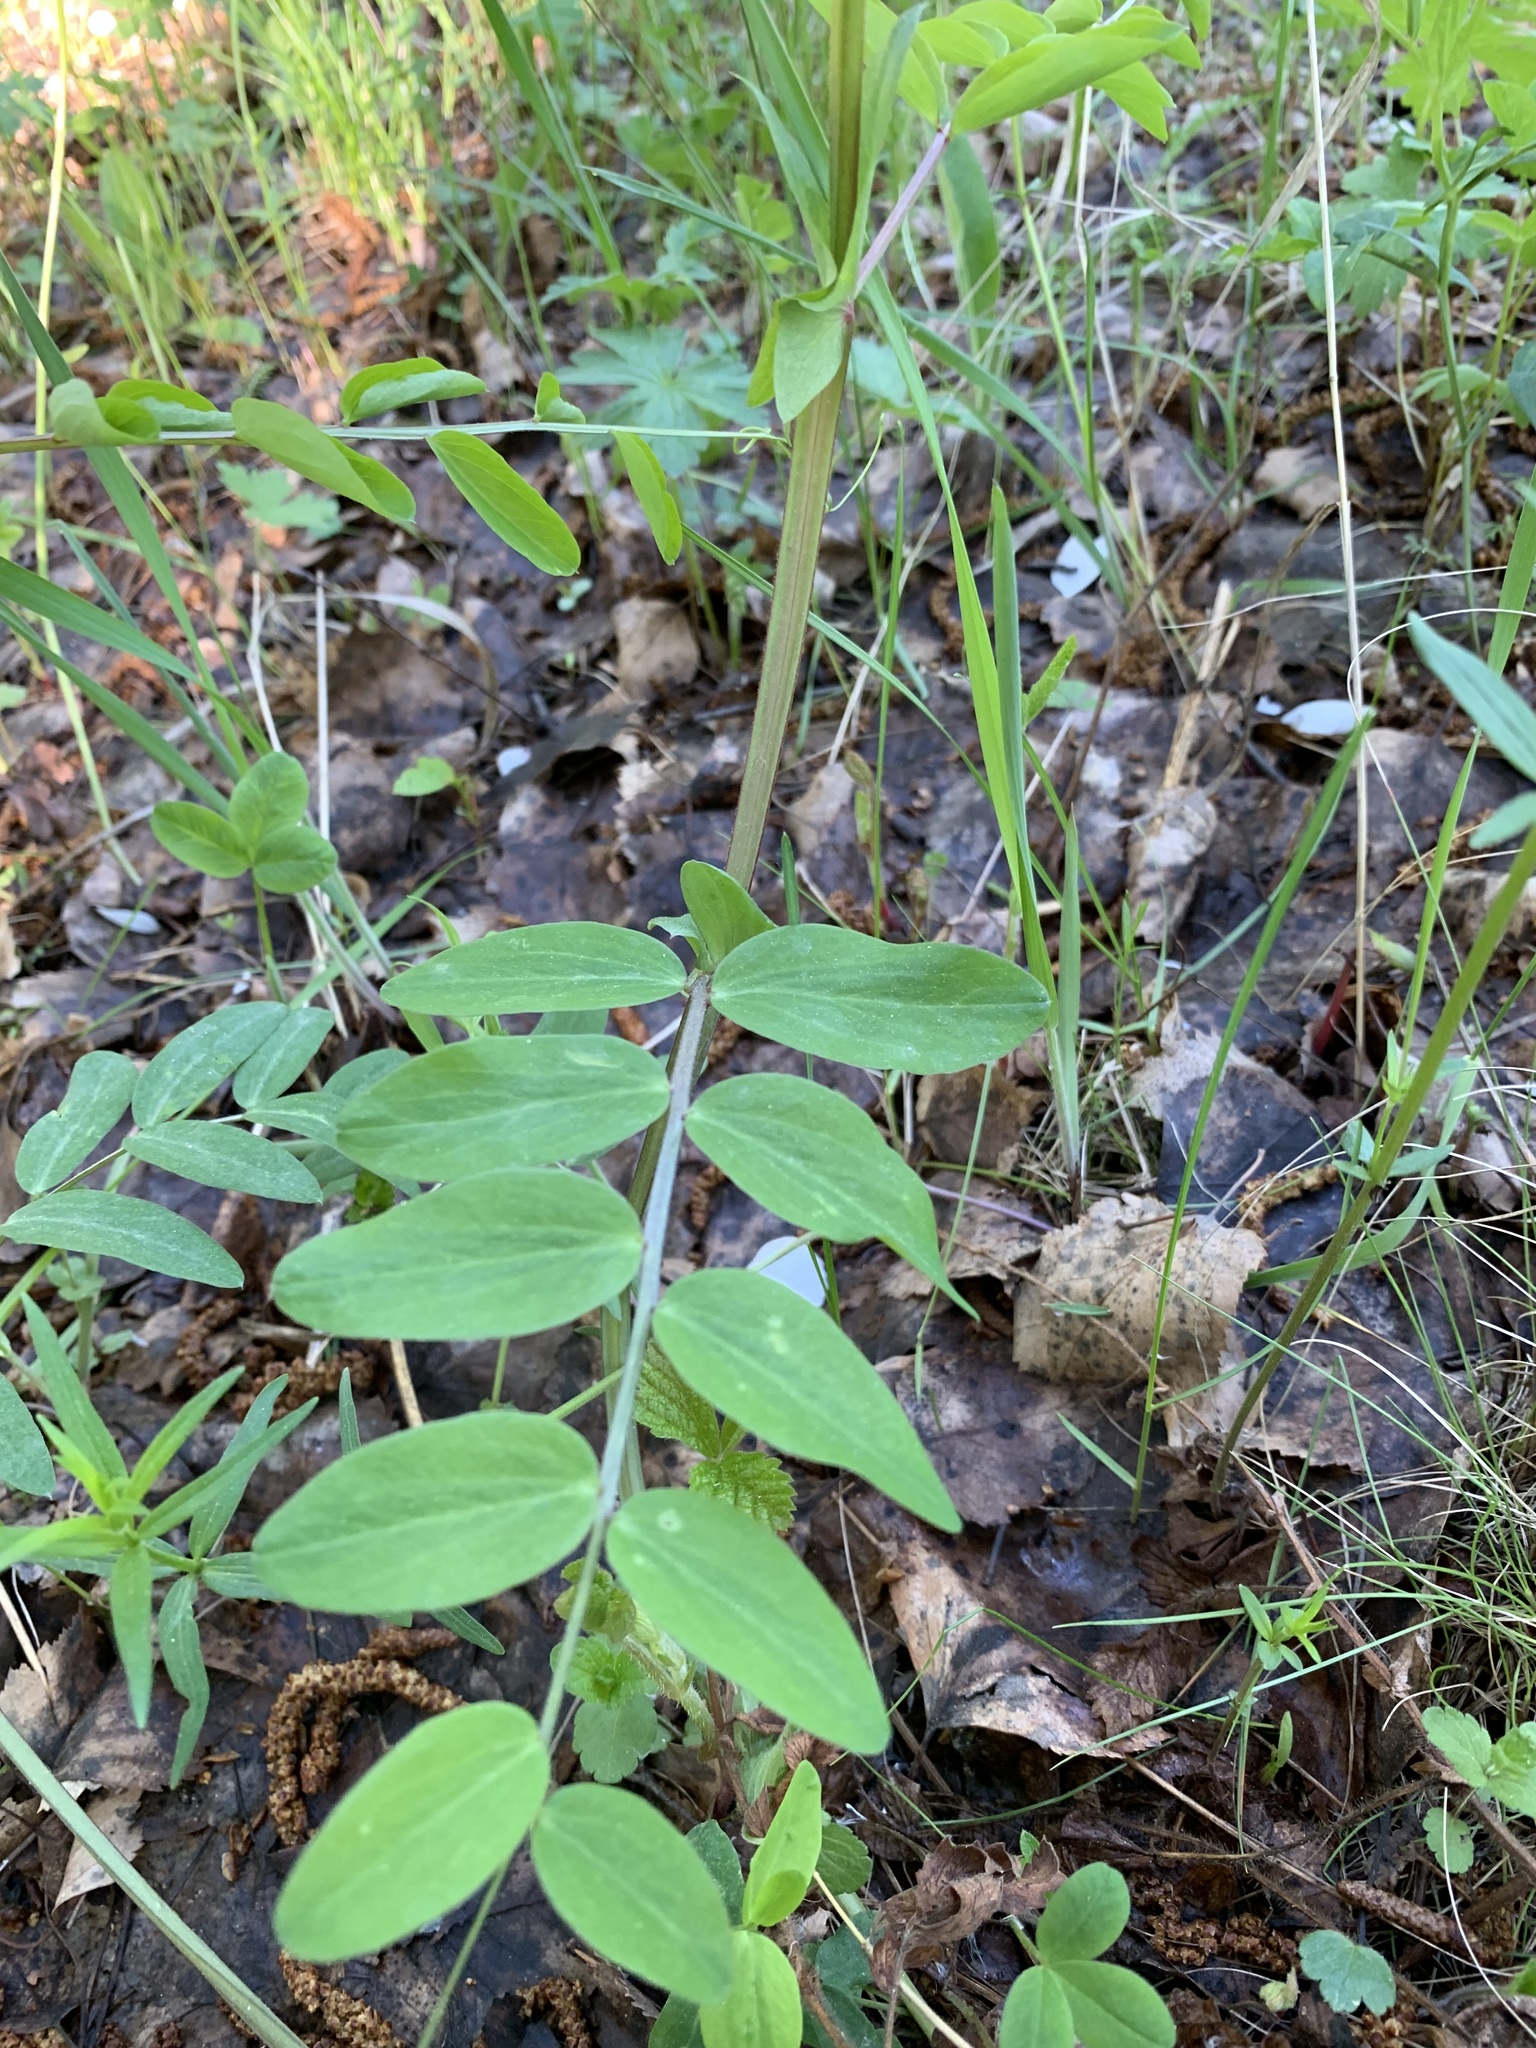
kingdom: Plantae
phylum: Tracheophyta
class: Magnoliopsida
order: Fabales
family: Fabaceae
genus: Lathyrus
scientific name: Lathyrus pisiformis
